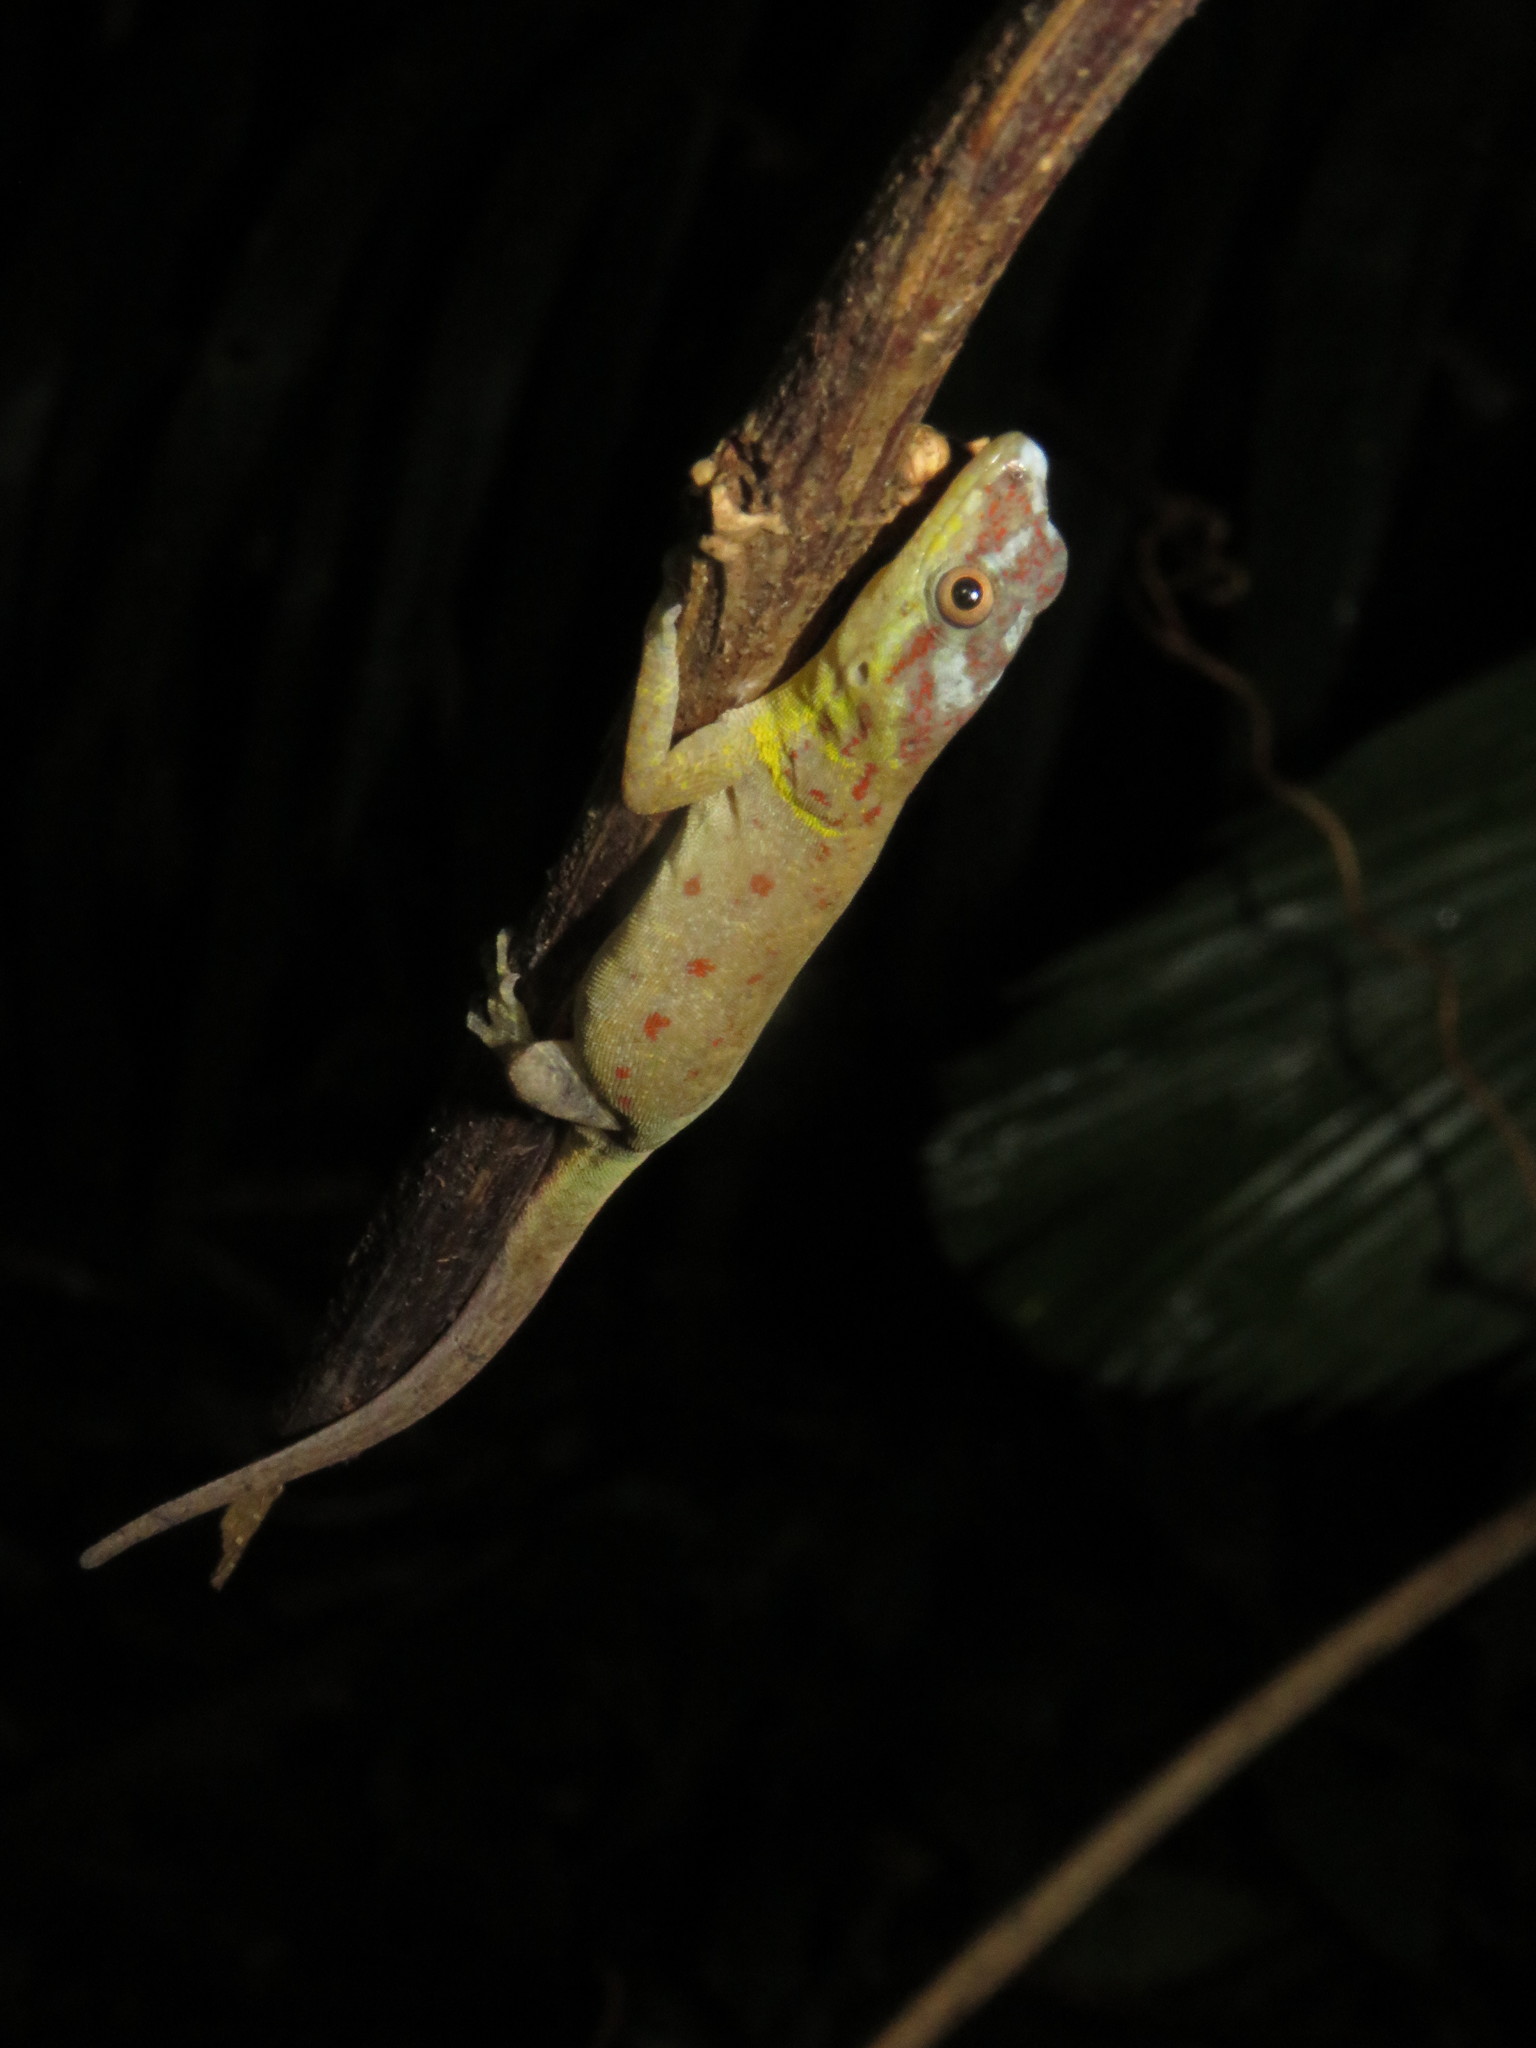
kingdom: Animalia
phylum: Chordata
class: Squamata
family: Sphaerodactylidae
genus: Gonatodes
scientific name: Gonatodes humeralis
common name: South american clawed gecko
